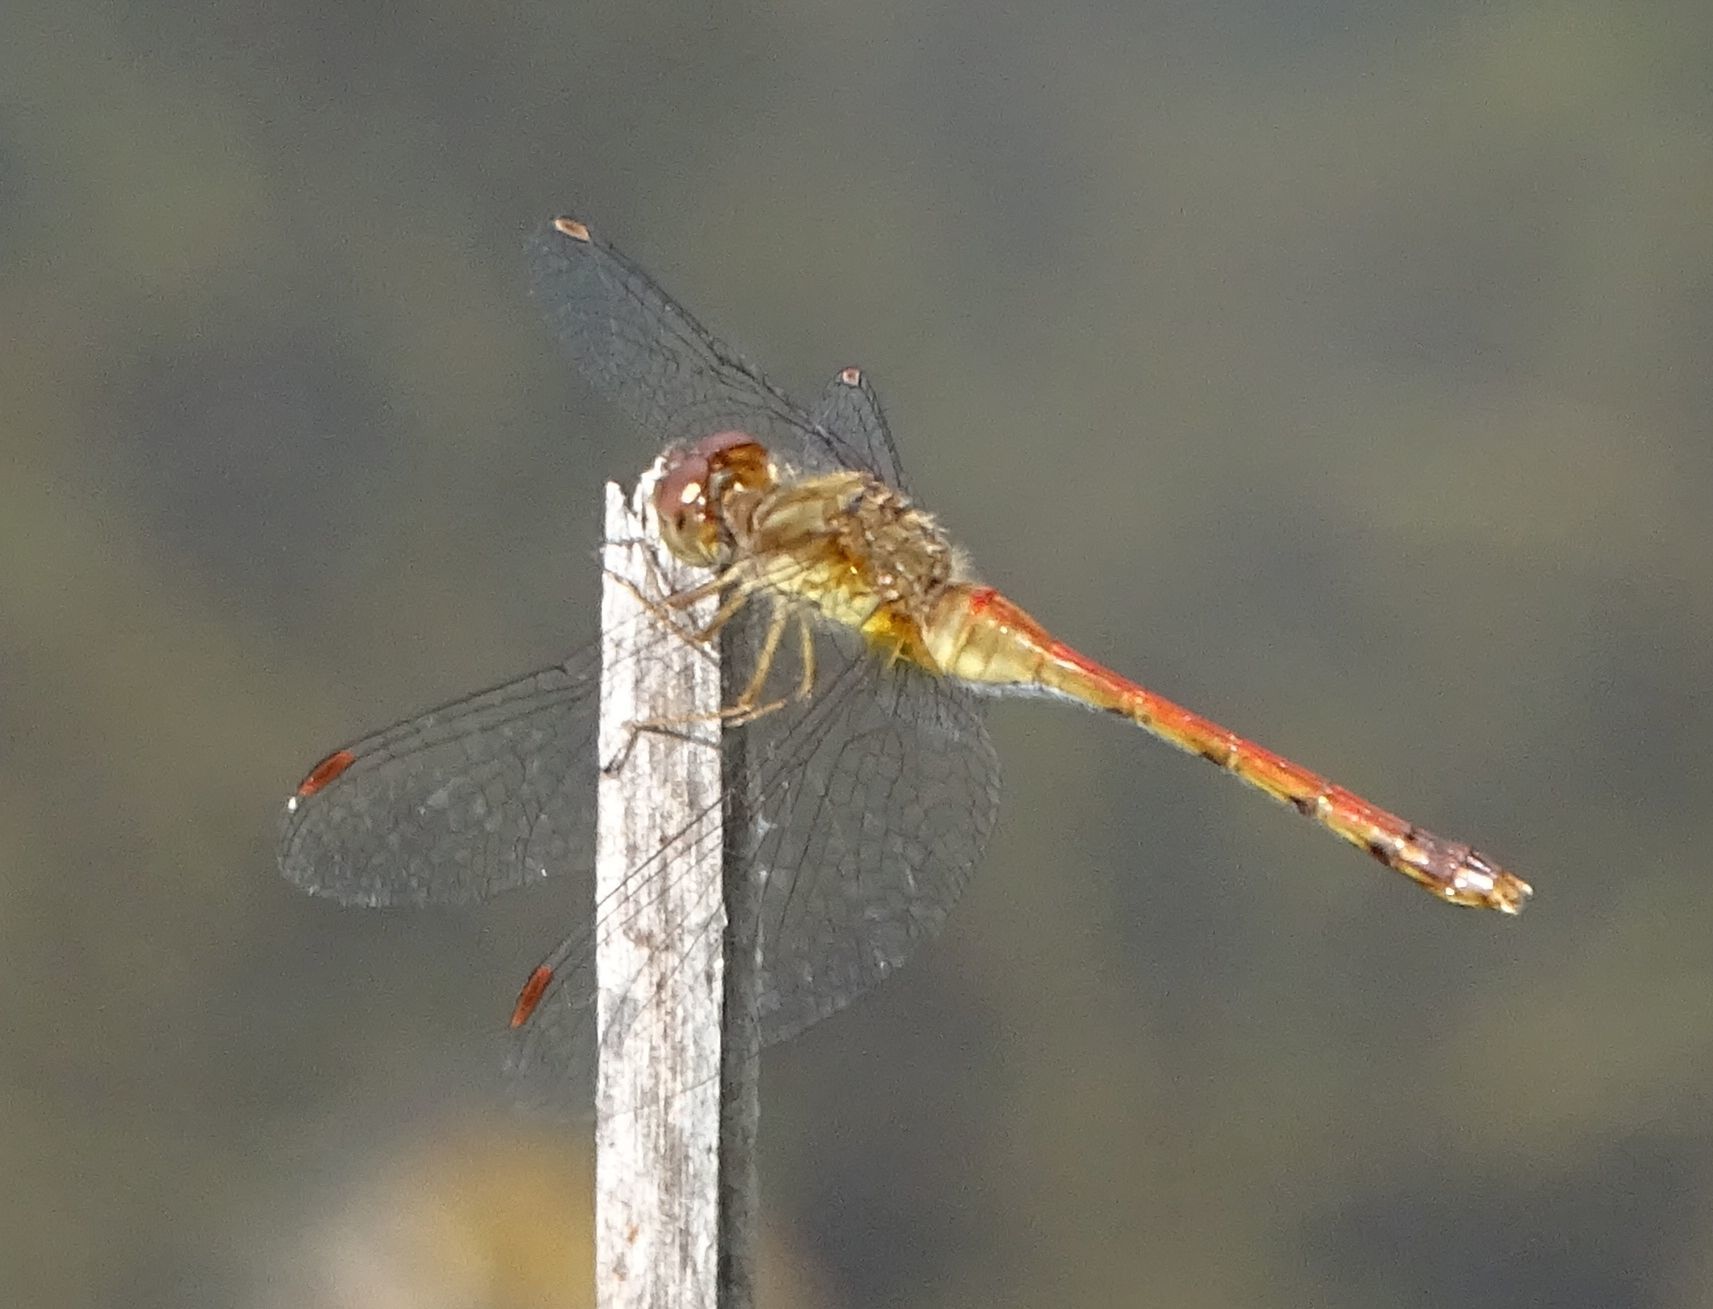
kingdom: Animalia
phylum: Arthropoda
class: Insecta
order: Odonata
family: Libellulidae
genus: Sympetrum
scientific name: Sympetrum vicinum
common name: Autumn meadowhawk
